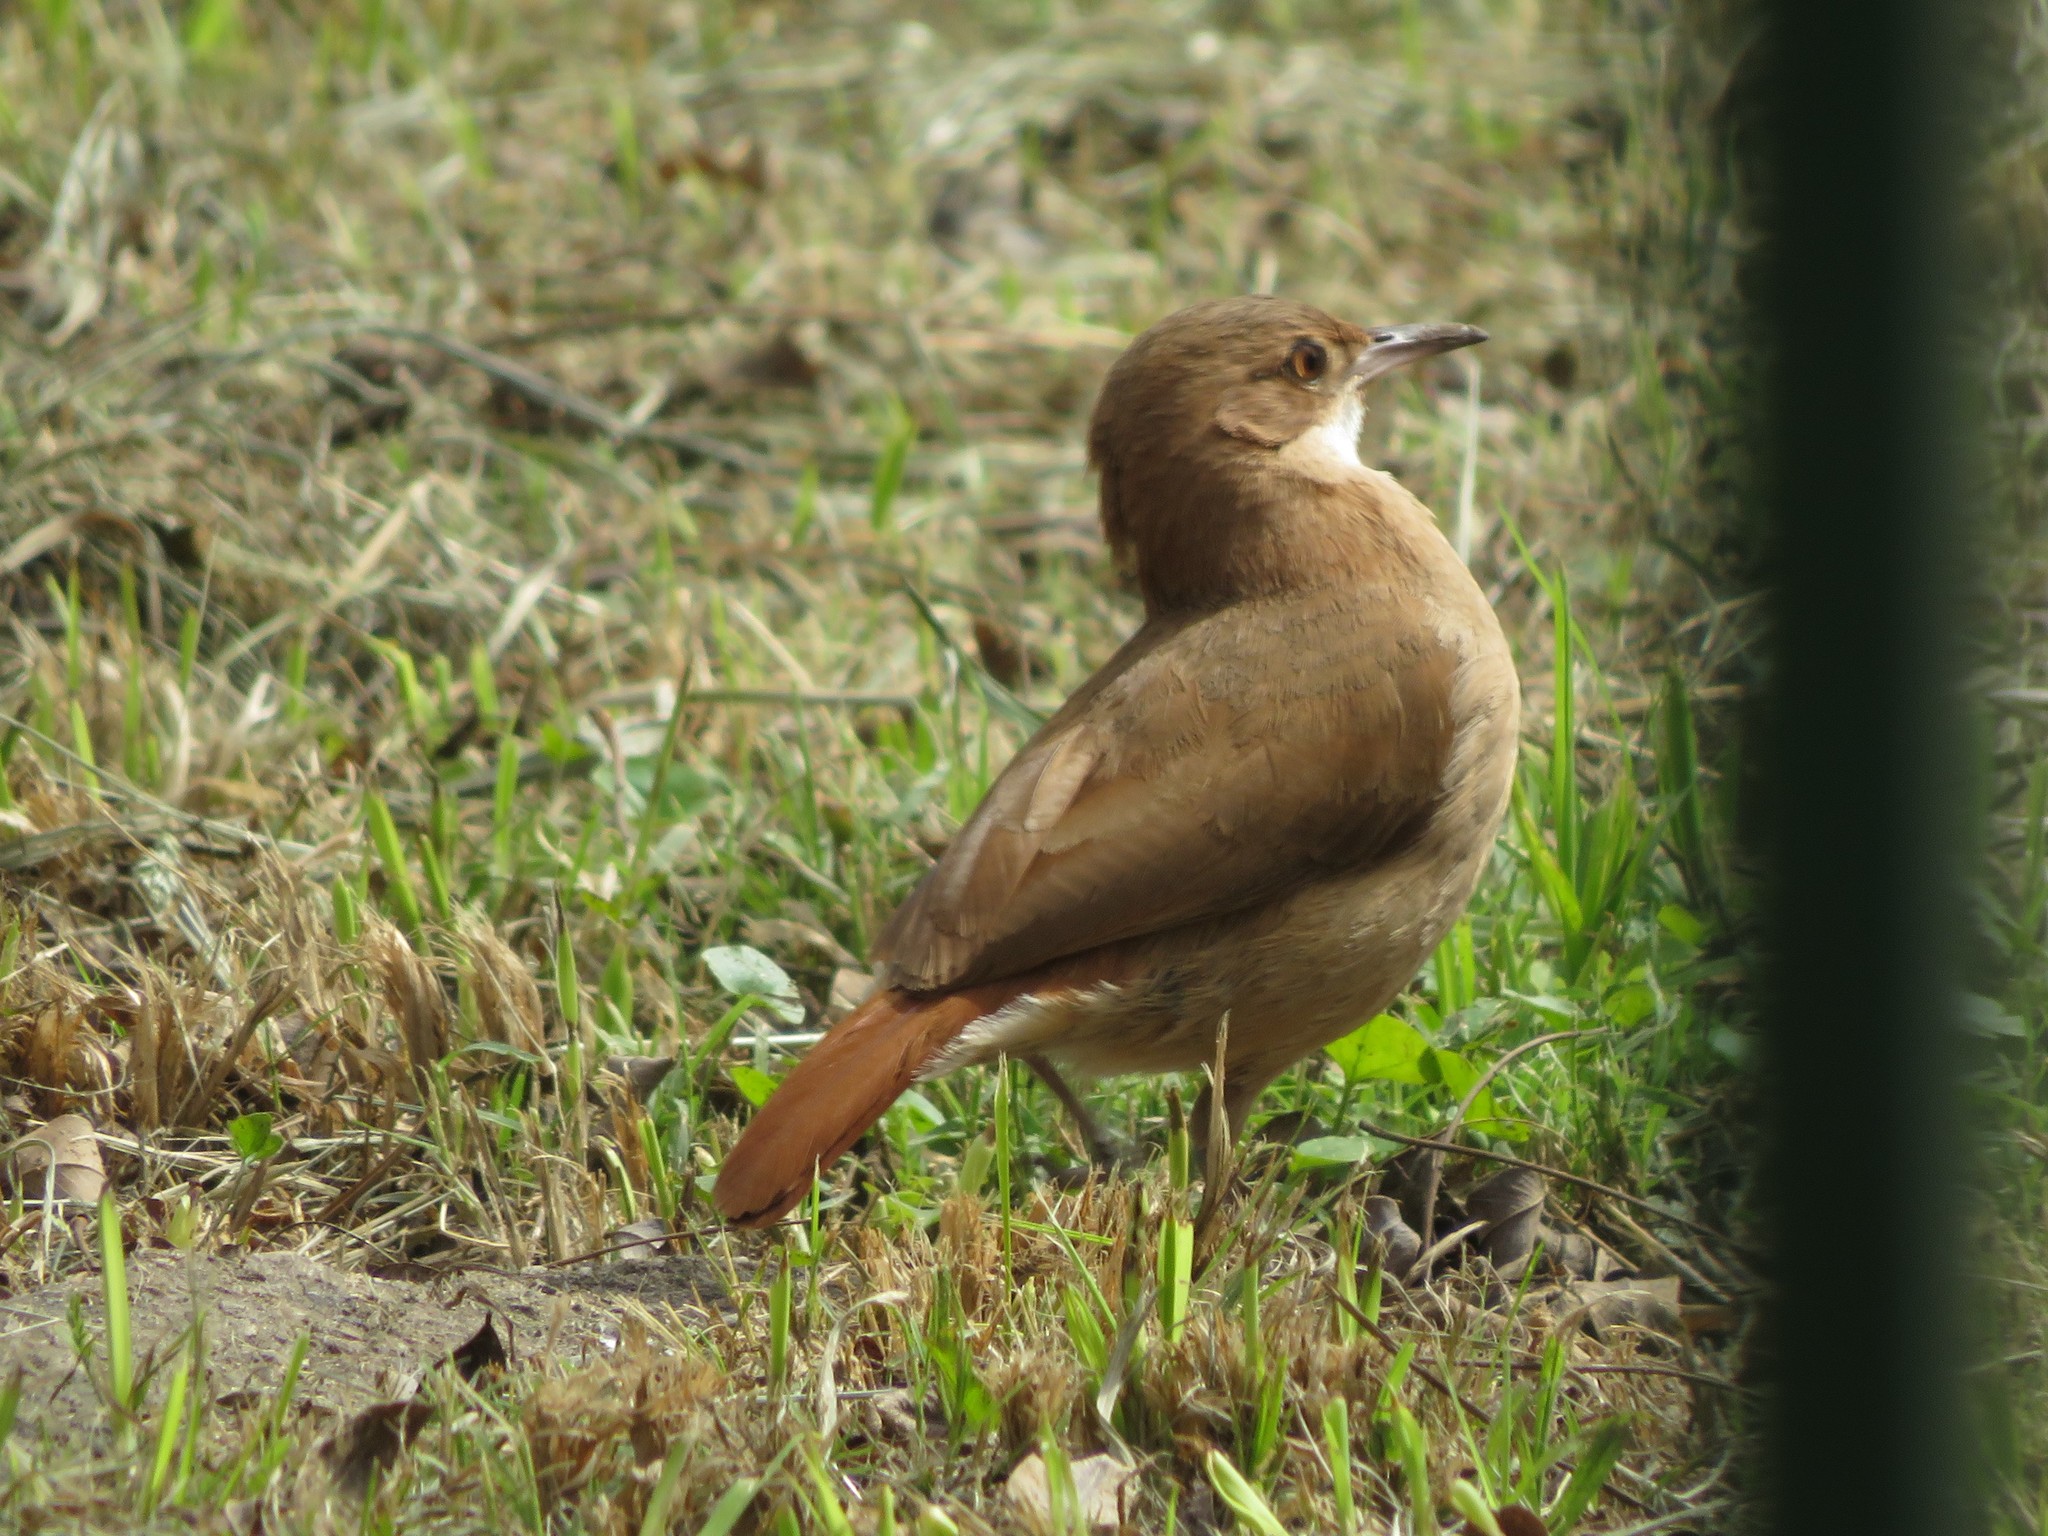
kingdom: Animalia
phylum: Chordata
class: Aves
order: Passeriformes
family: Furnariidae
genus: Furnarius
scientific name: Furnarius rufus
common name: Rufous hornero
